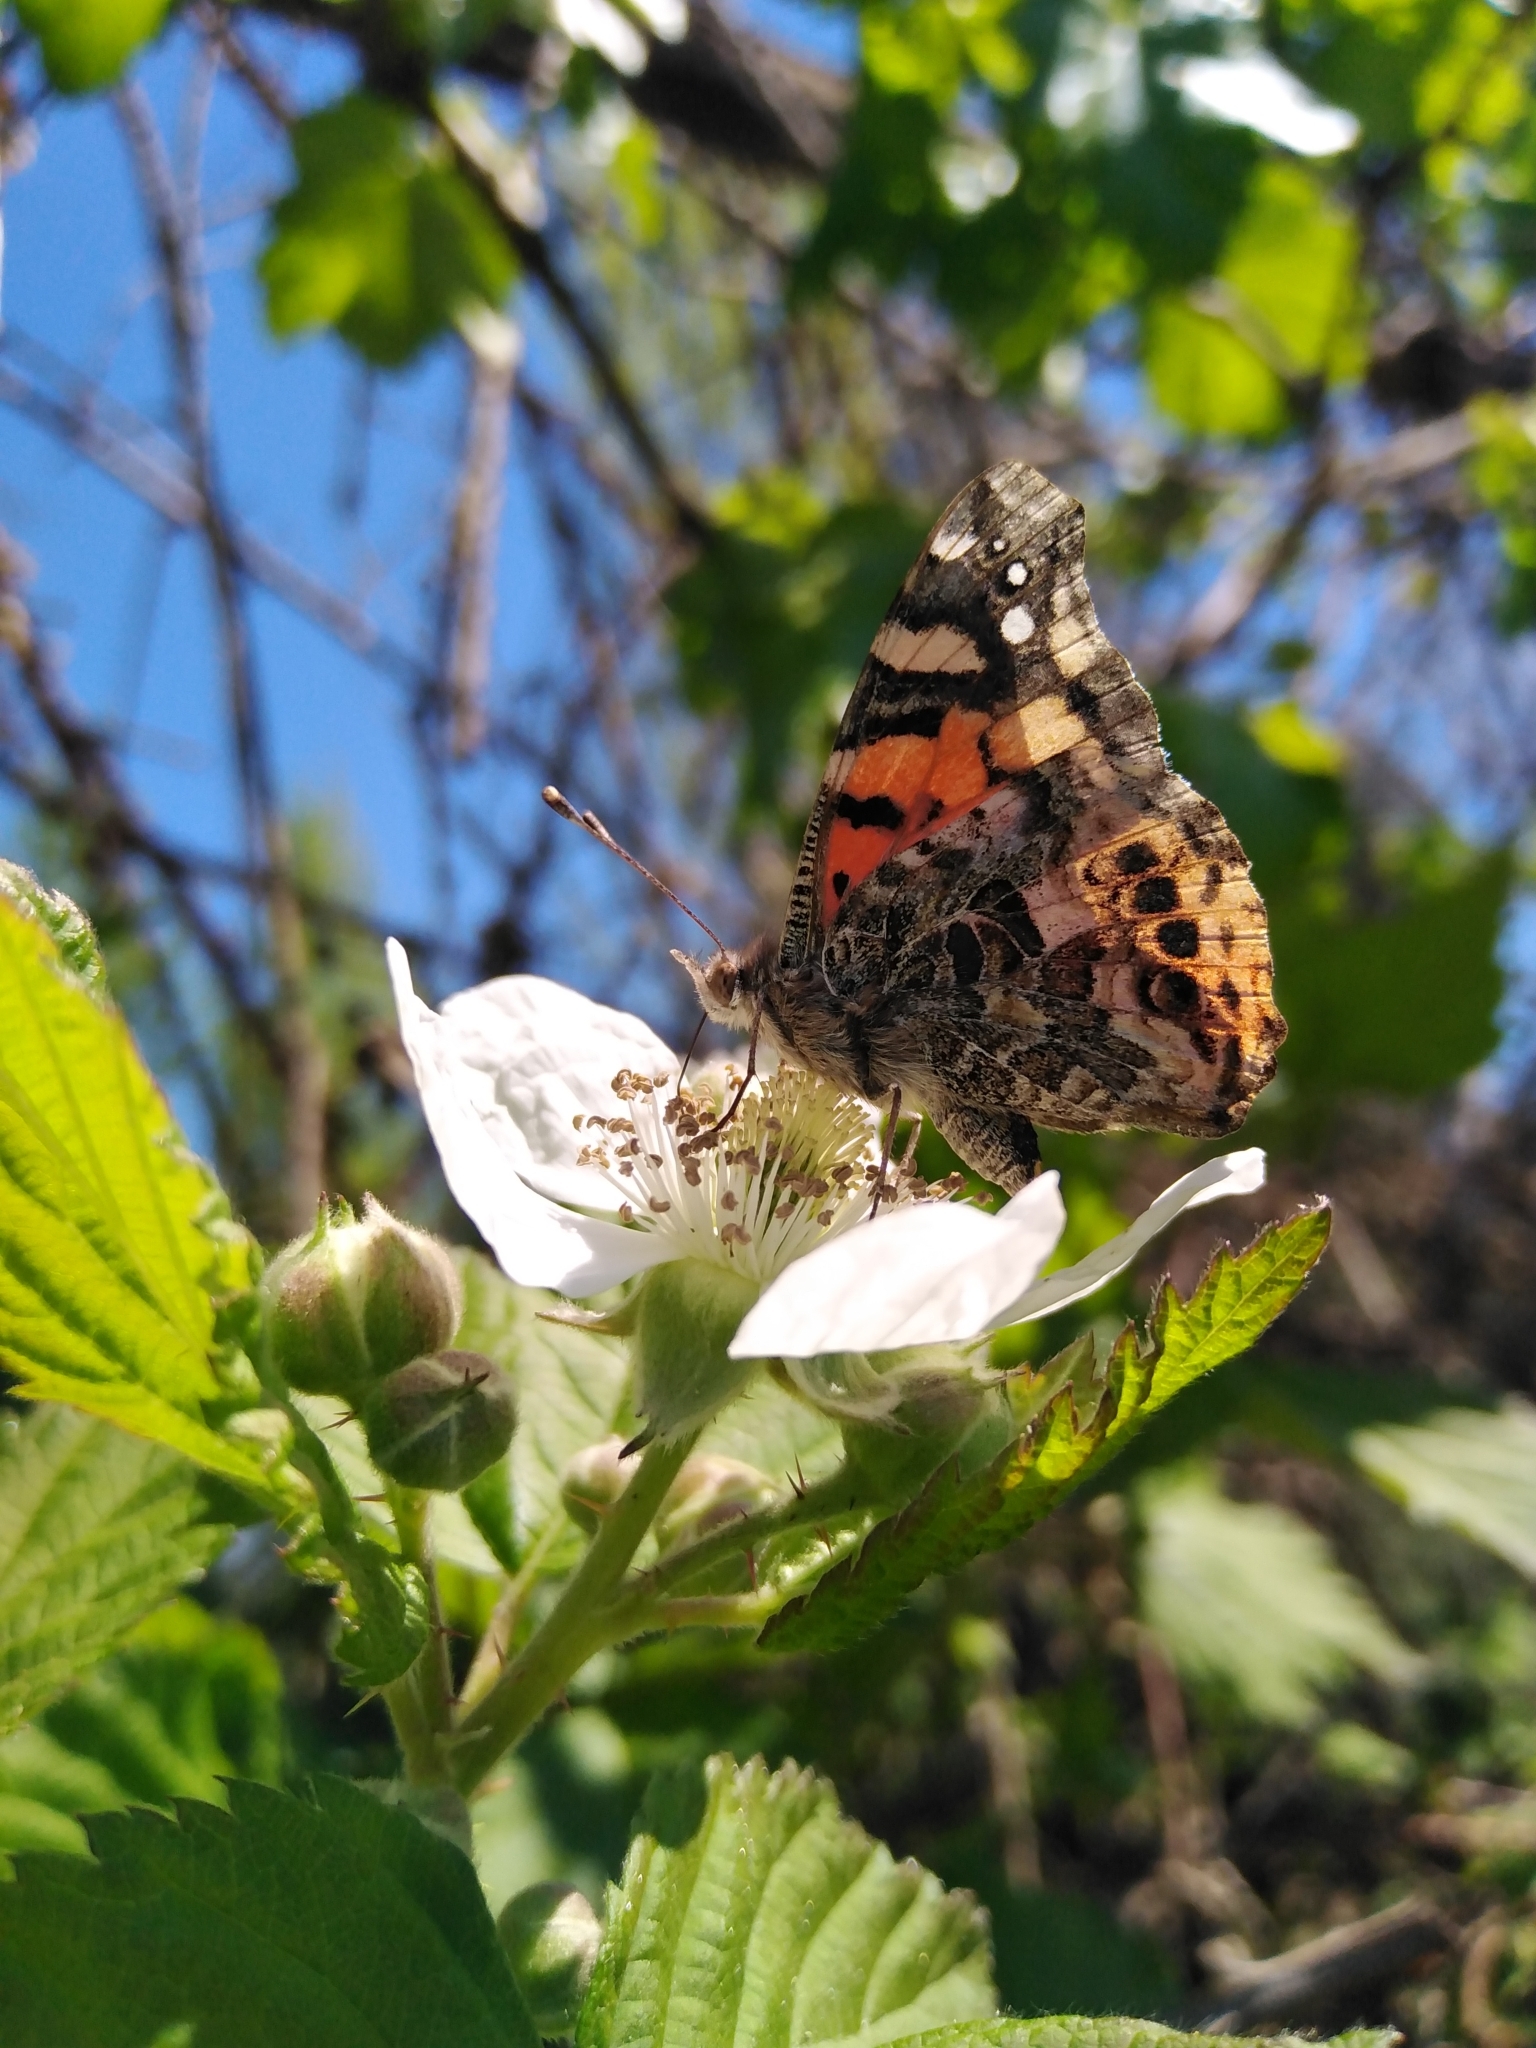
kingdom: Animalia
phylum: Arthropoda
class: Insecta
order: Lepidoptera
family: Nymphalidae
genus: Vanessa
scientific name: Vanessa carye
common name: Subtropical lady
